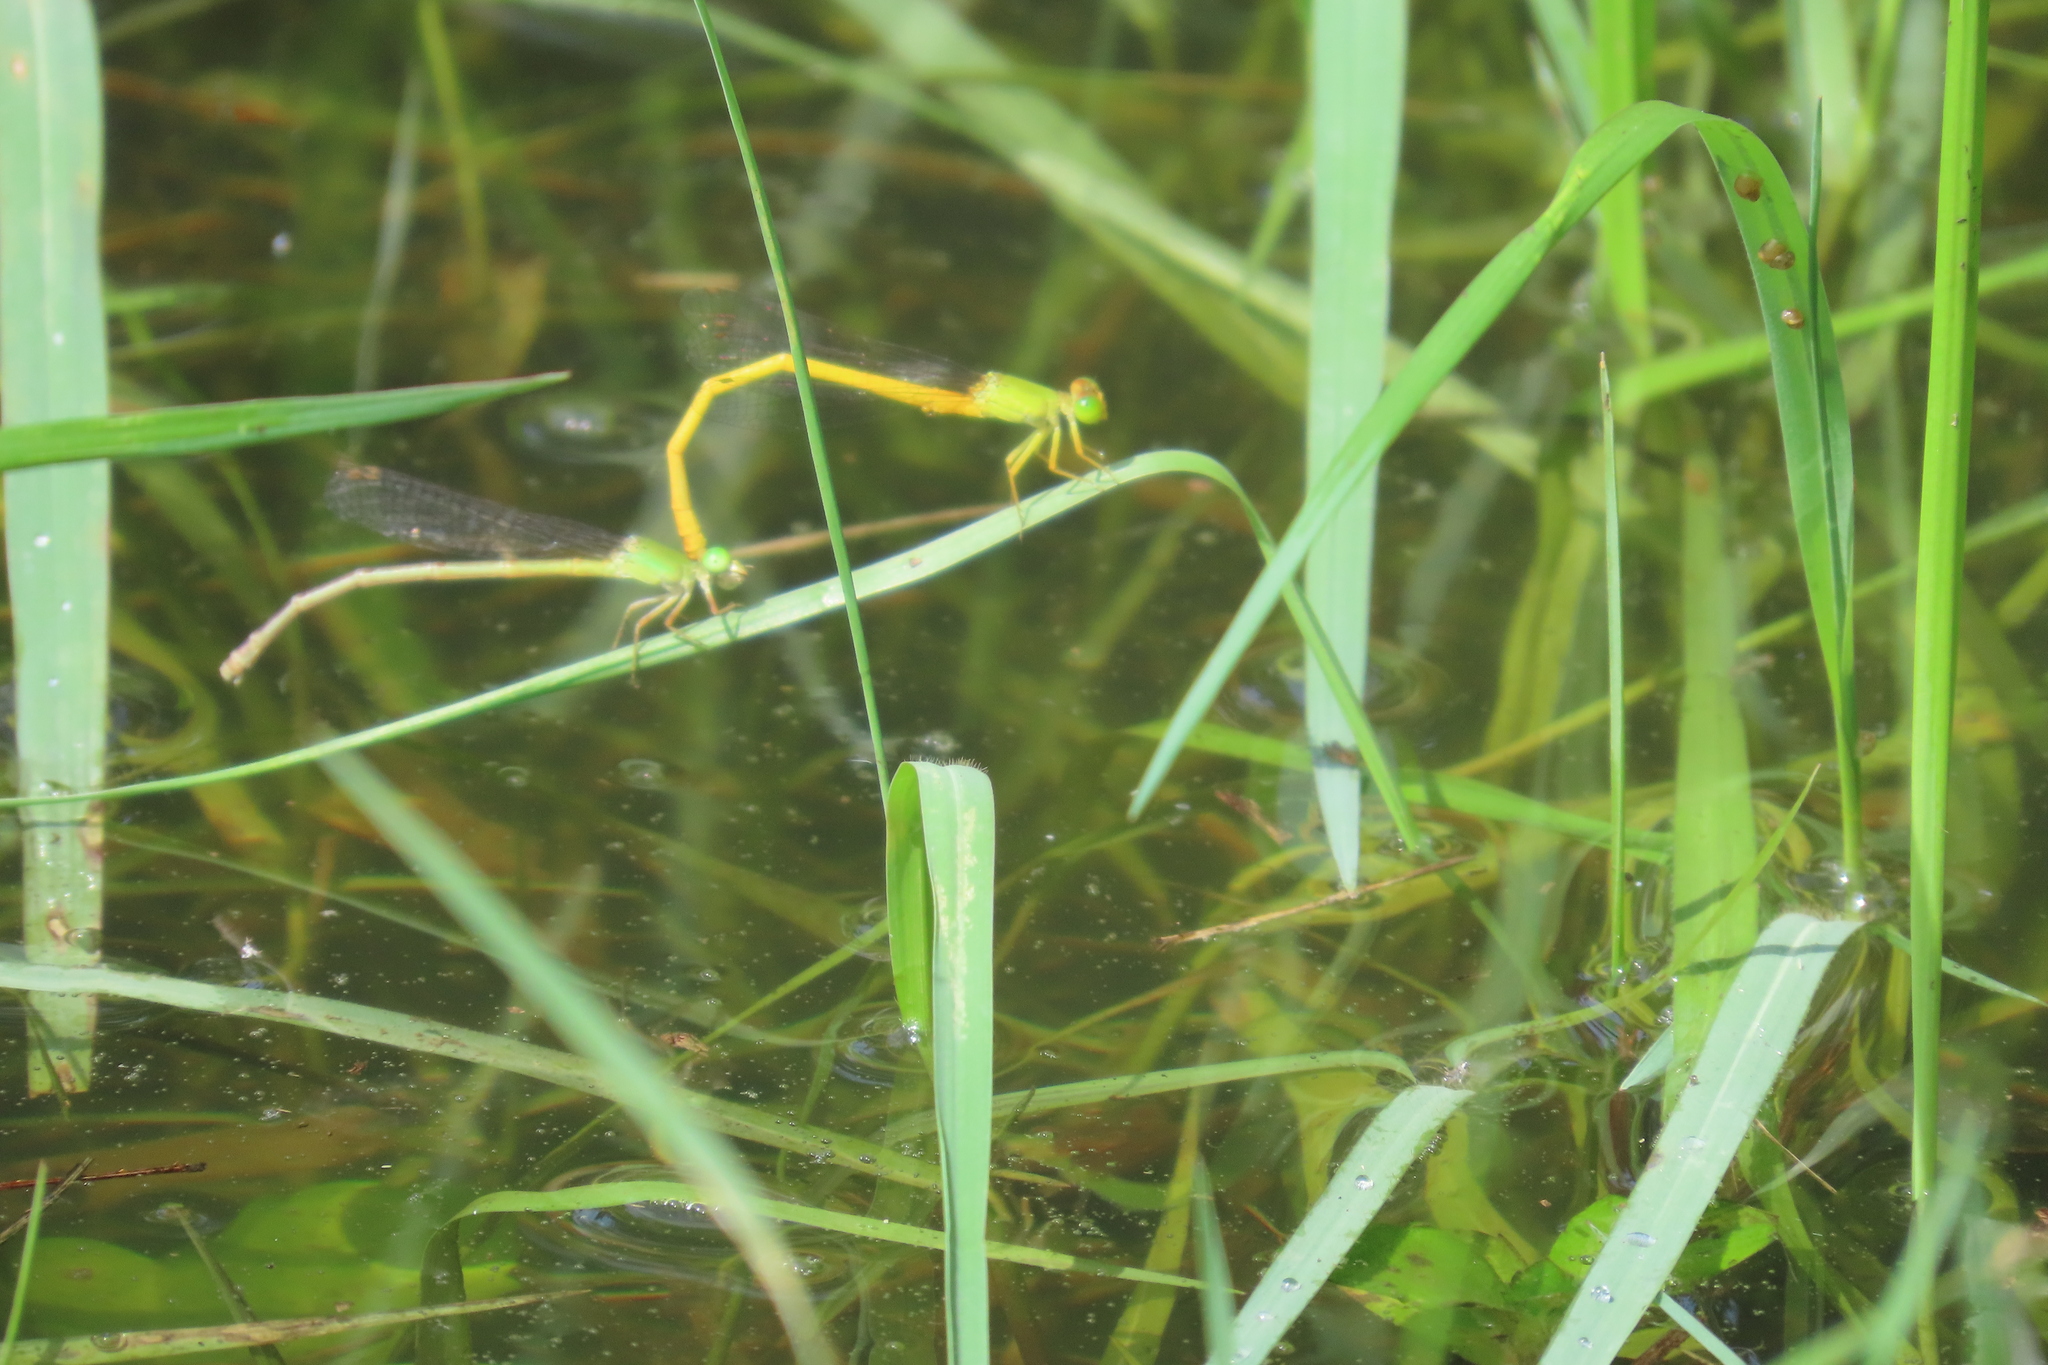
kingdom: Animalia
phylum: Arthropoda
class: Insecta
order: Odonata
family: Coenagrionidae
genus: Ceriagrion
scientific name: Ceriagrion coromandelianum
